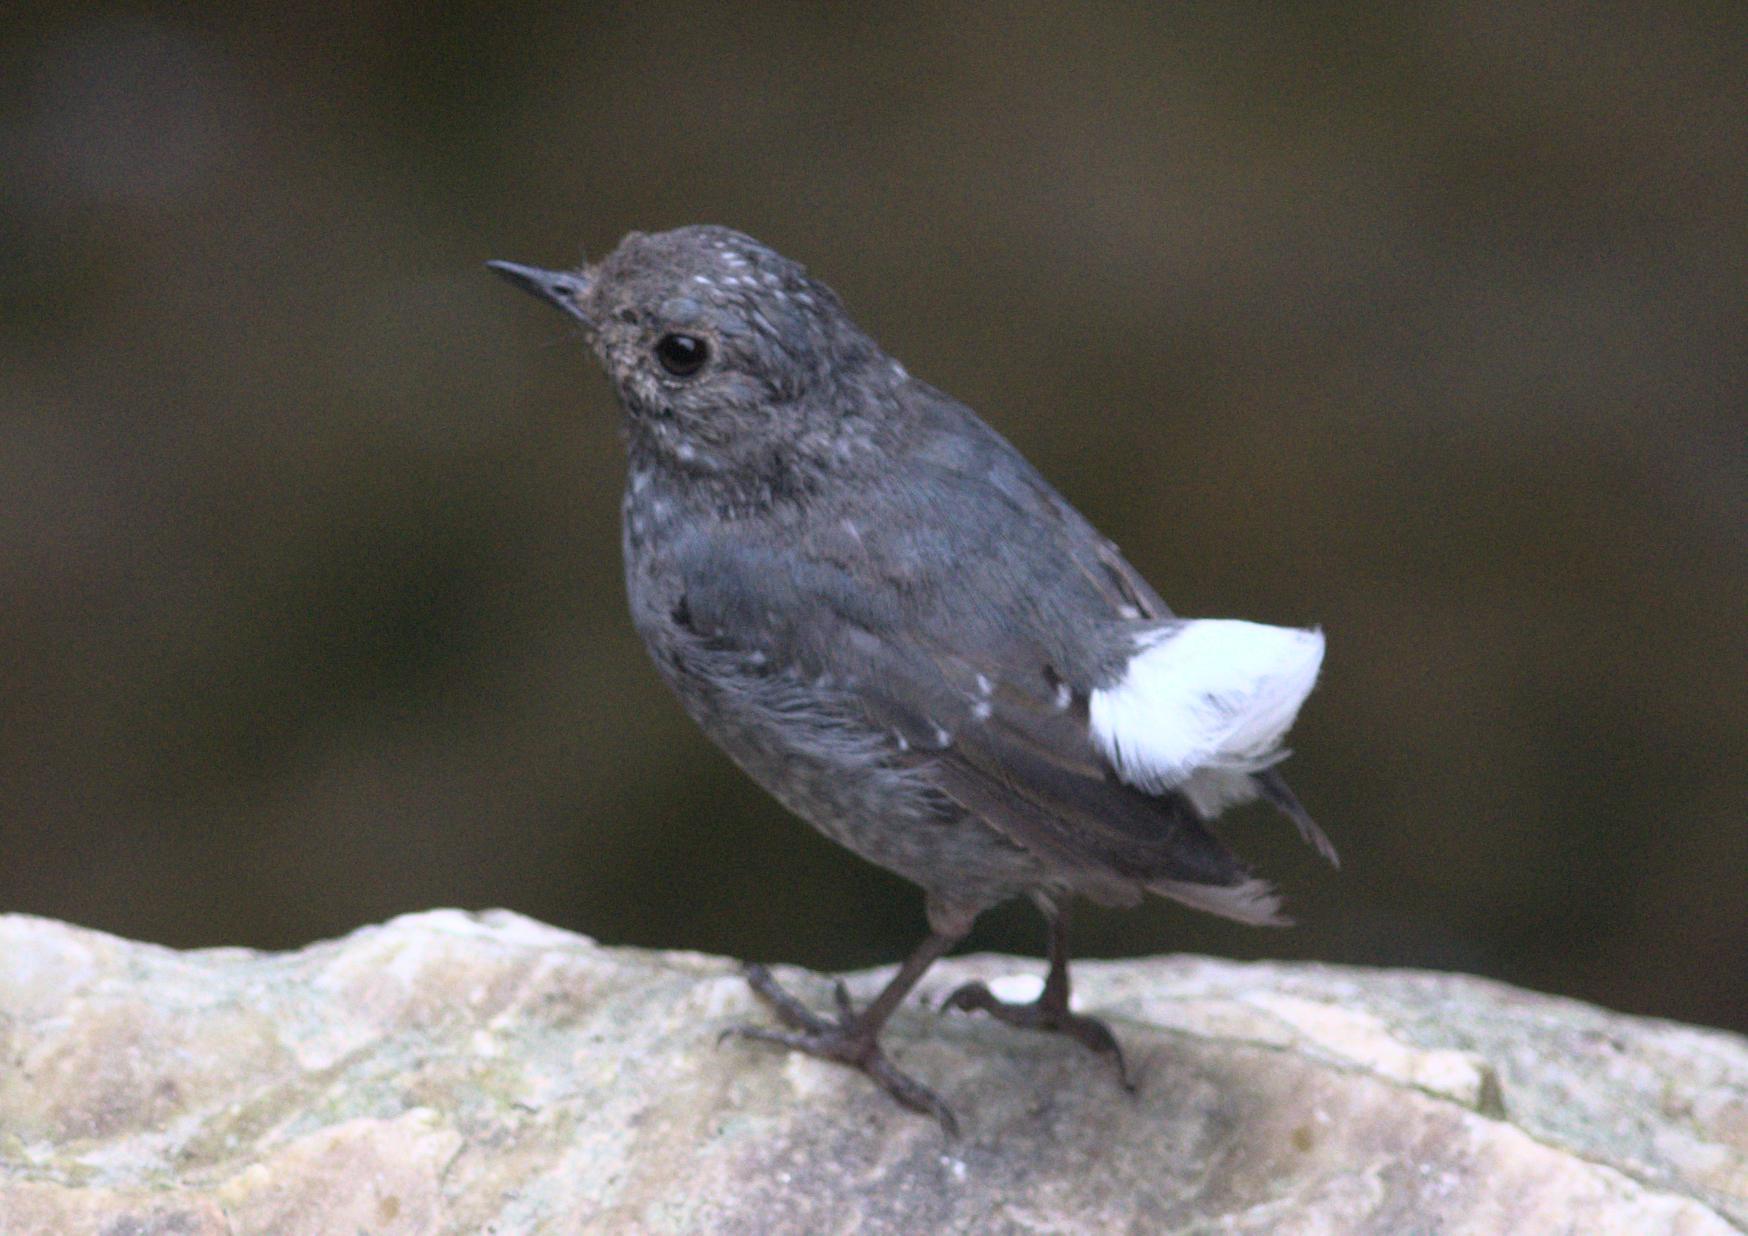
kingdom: Animalia
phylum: Chordata
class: Aves
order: Passeriformes
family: Muscicapidae
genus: Phoenicurus
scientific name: Phoenicurus fuliginosus
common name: Plumbeous water redstart
